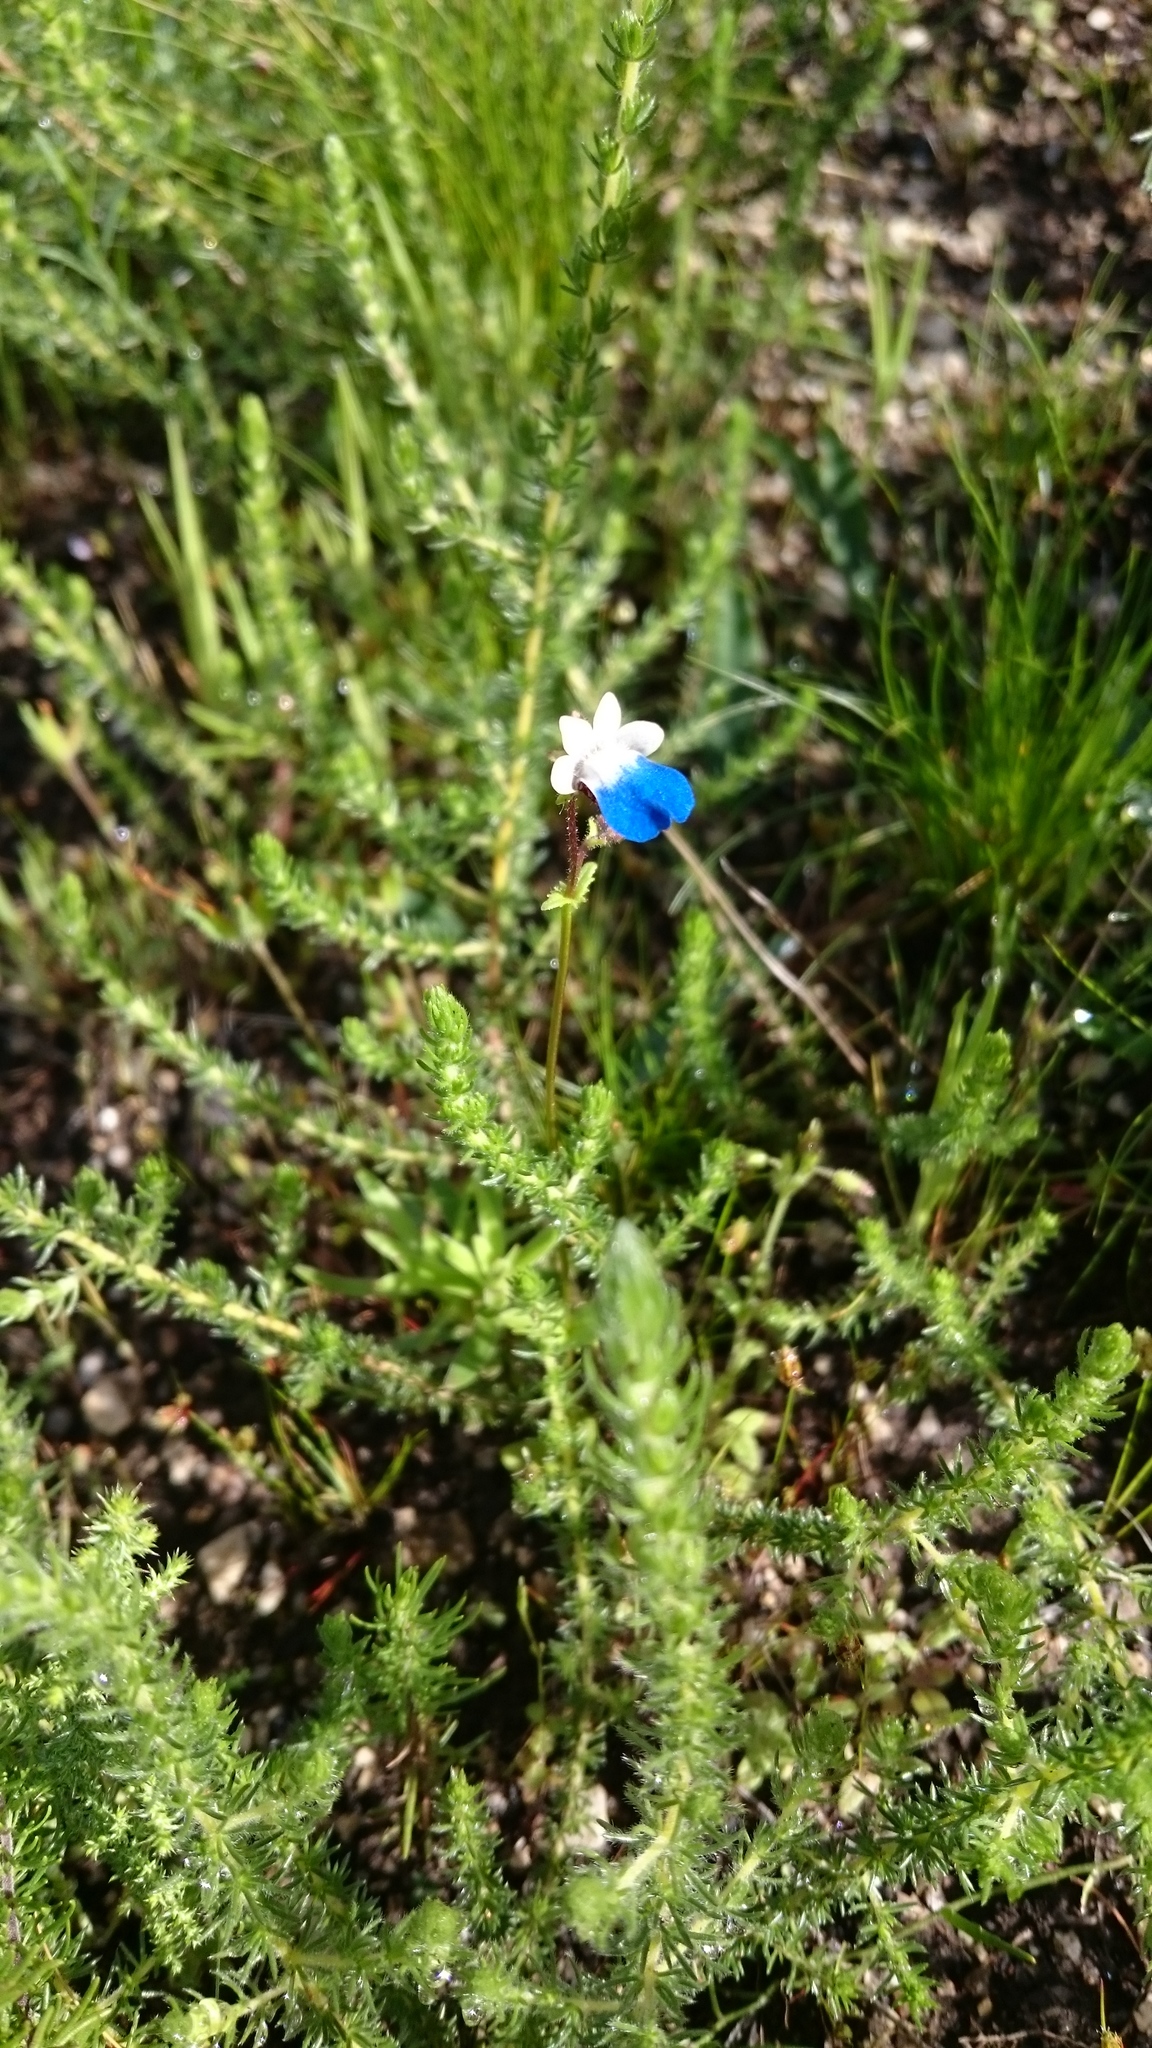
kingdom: Plantae
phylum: Tracheophyta
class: Magnoliopsida
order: Lamiales
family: Scrophulariaceae
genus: Nemesia
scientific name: Nemesia barbata
